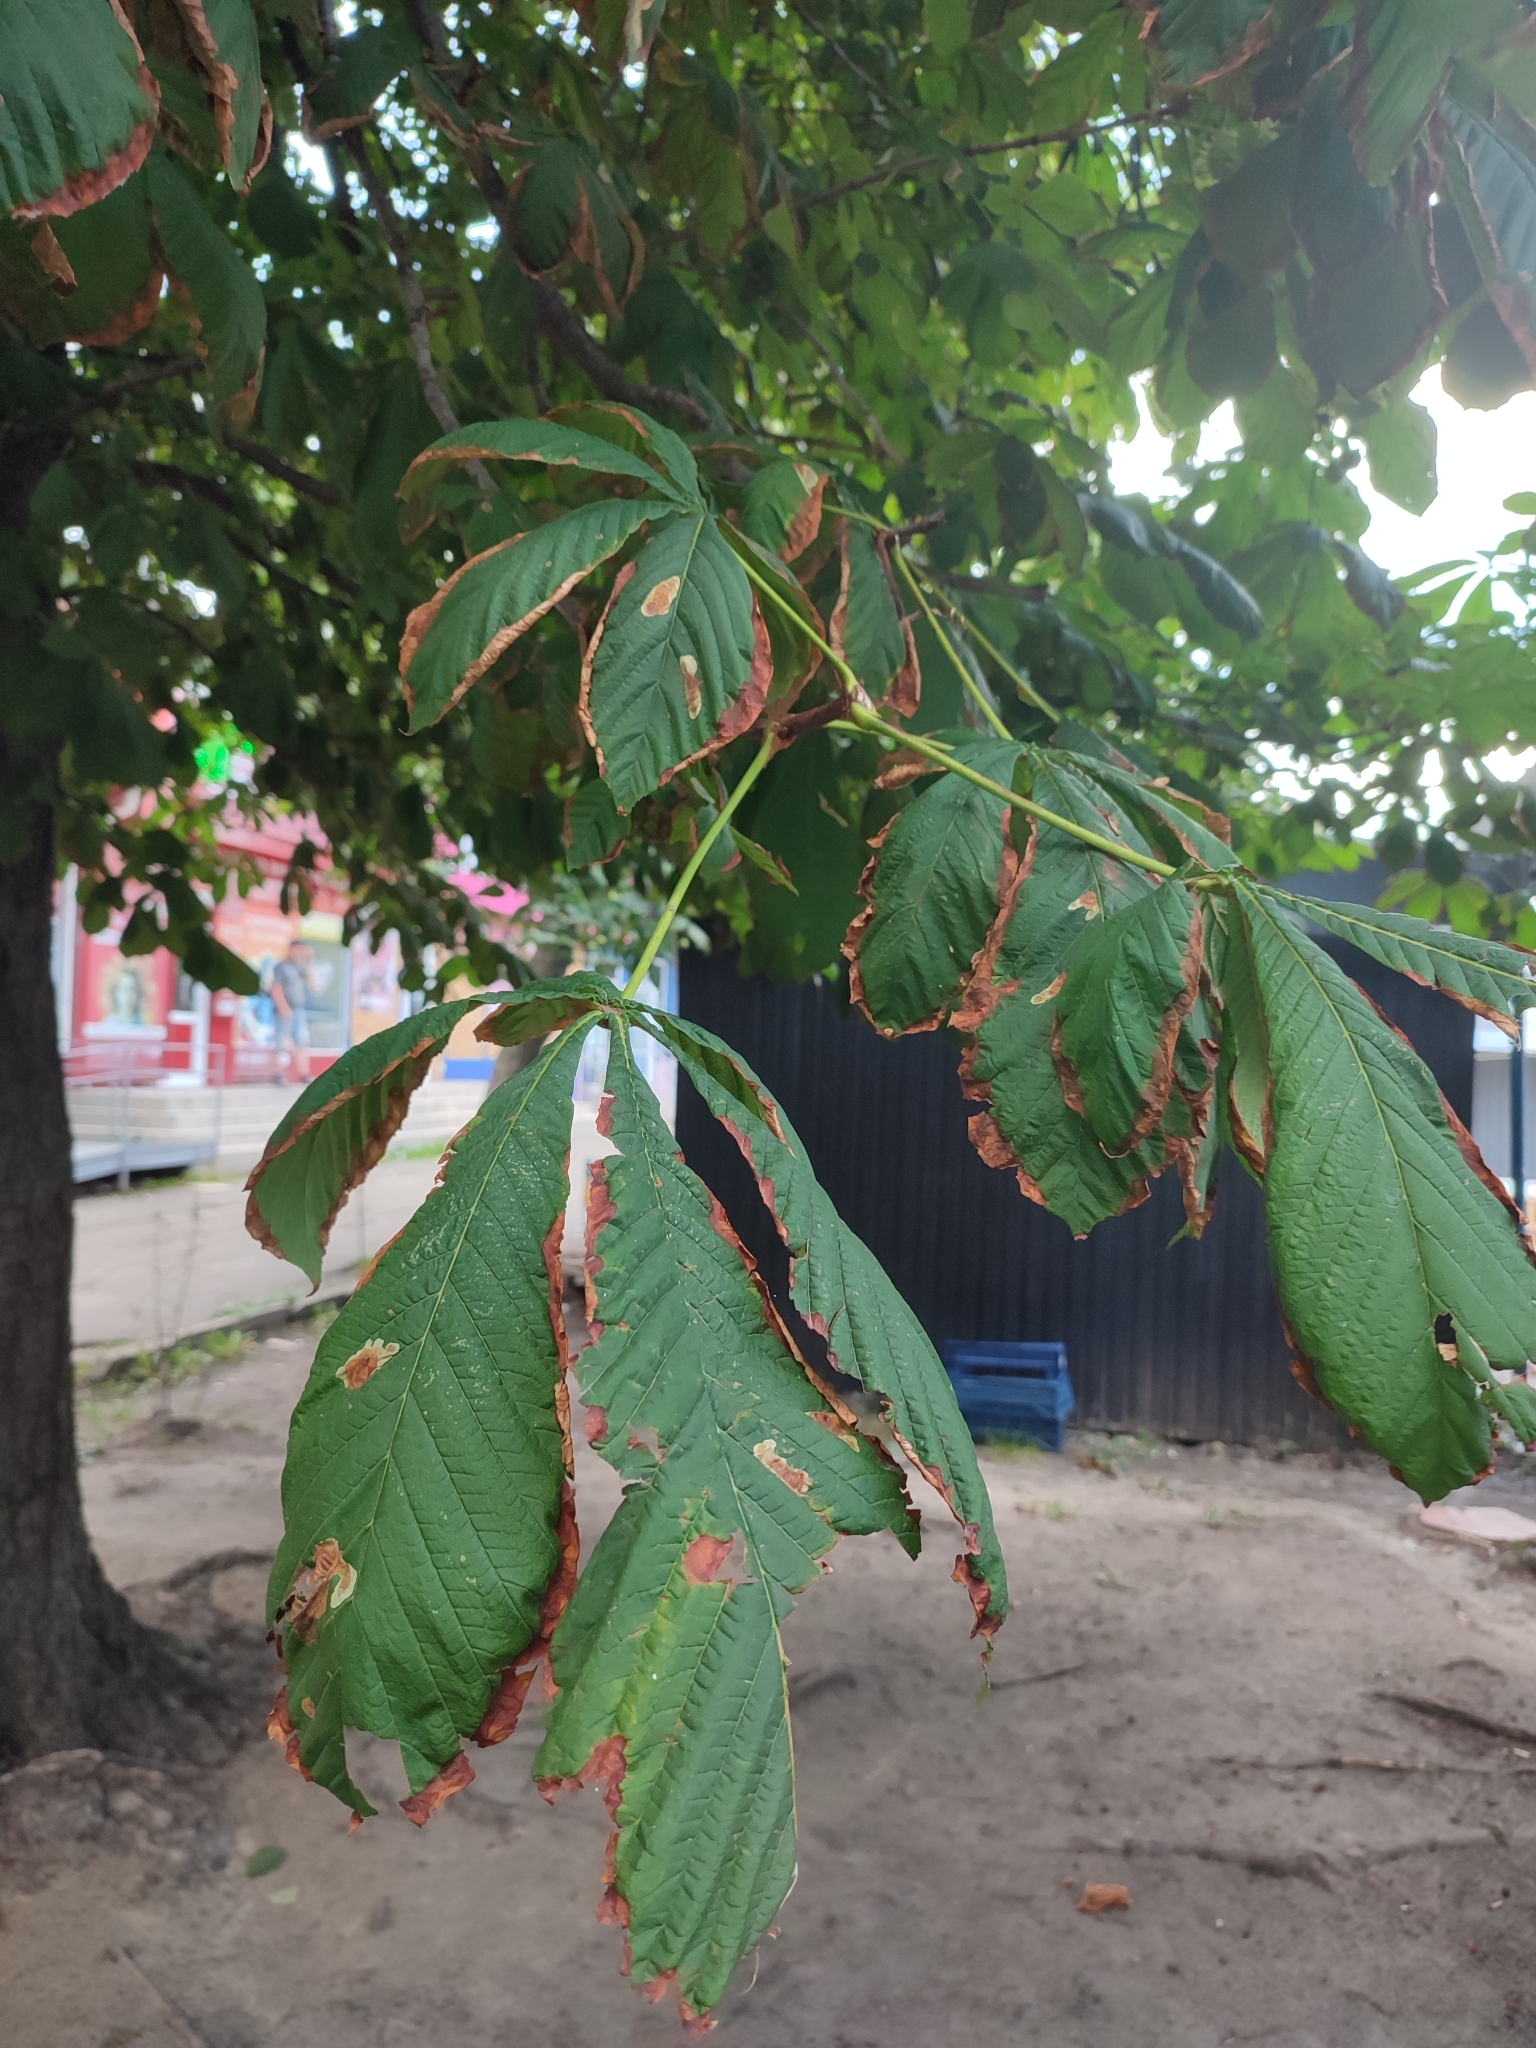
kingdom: Animalia
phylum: Arthropoda
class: Insecta
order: Lepidoptera
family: Gracillariidae
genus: Cameraria
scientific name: Cameraria ohridella
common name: Horse-chestnut leaf-miner
